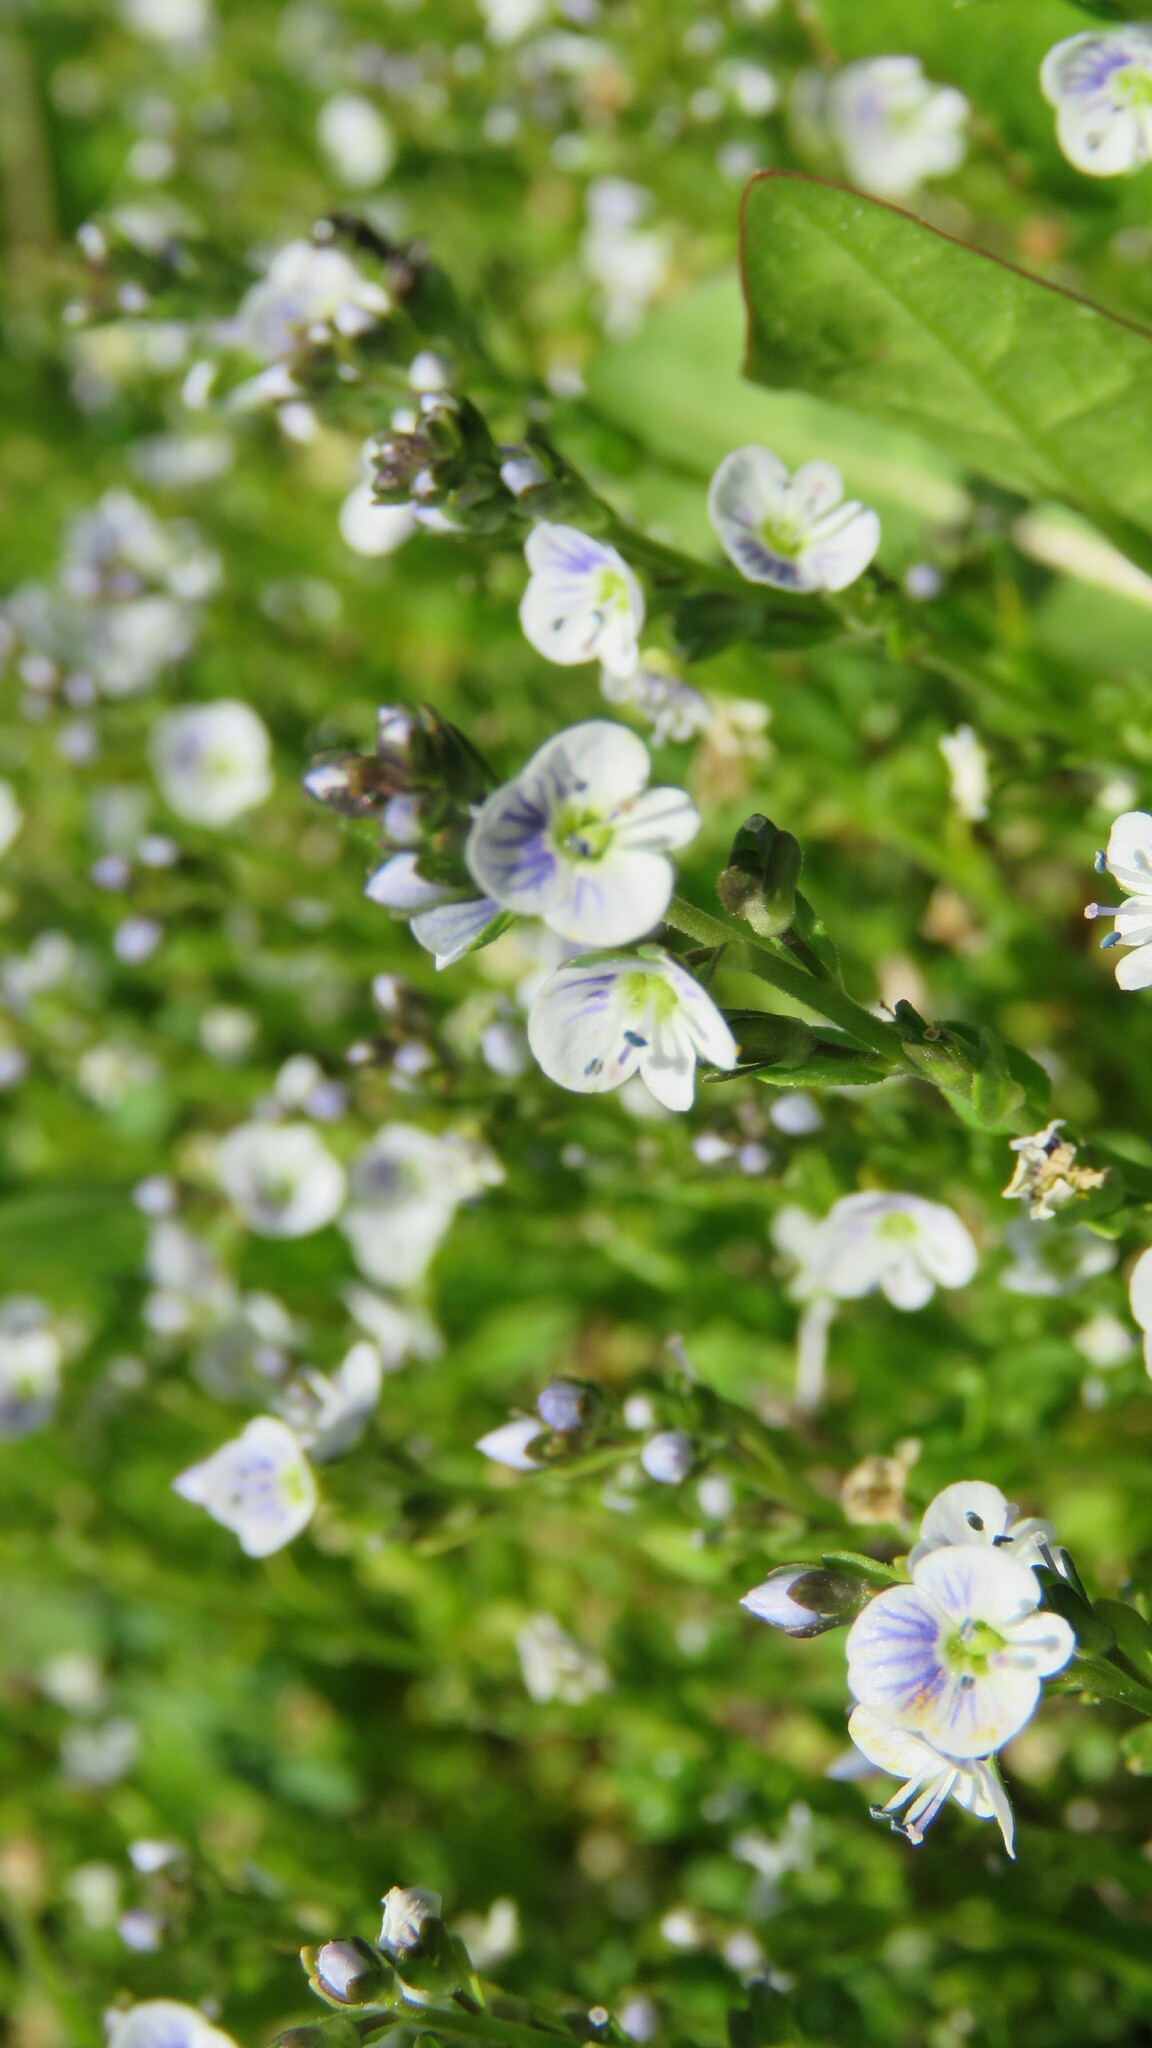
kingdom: Plantae
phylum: Tracheophyta
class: Magnoliopsida
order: Lamiales
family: Plantaginaceae
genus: Veronica
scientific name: Veronica serpyllifolia
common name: Thyme-leaved speedwell
